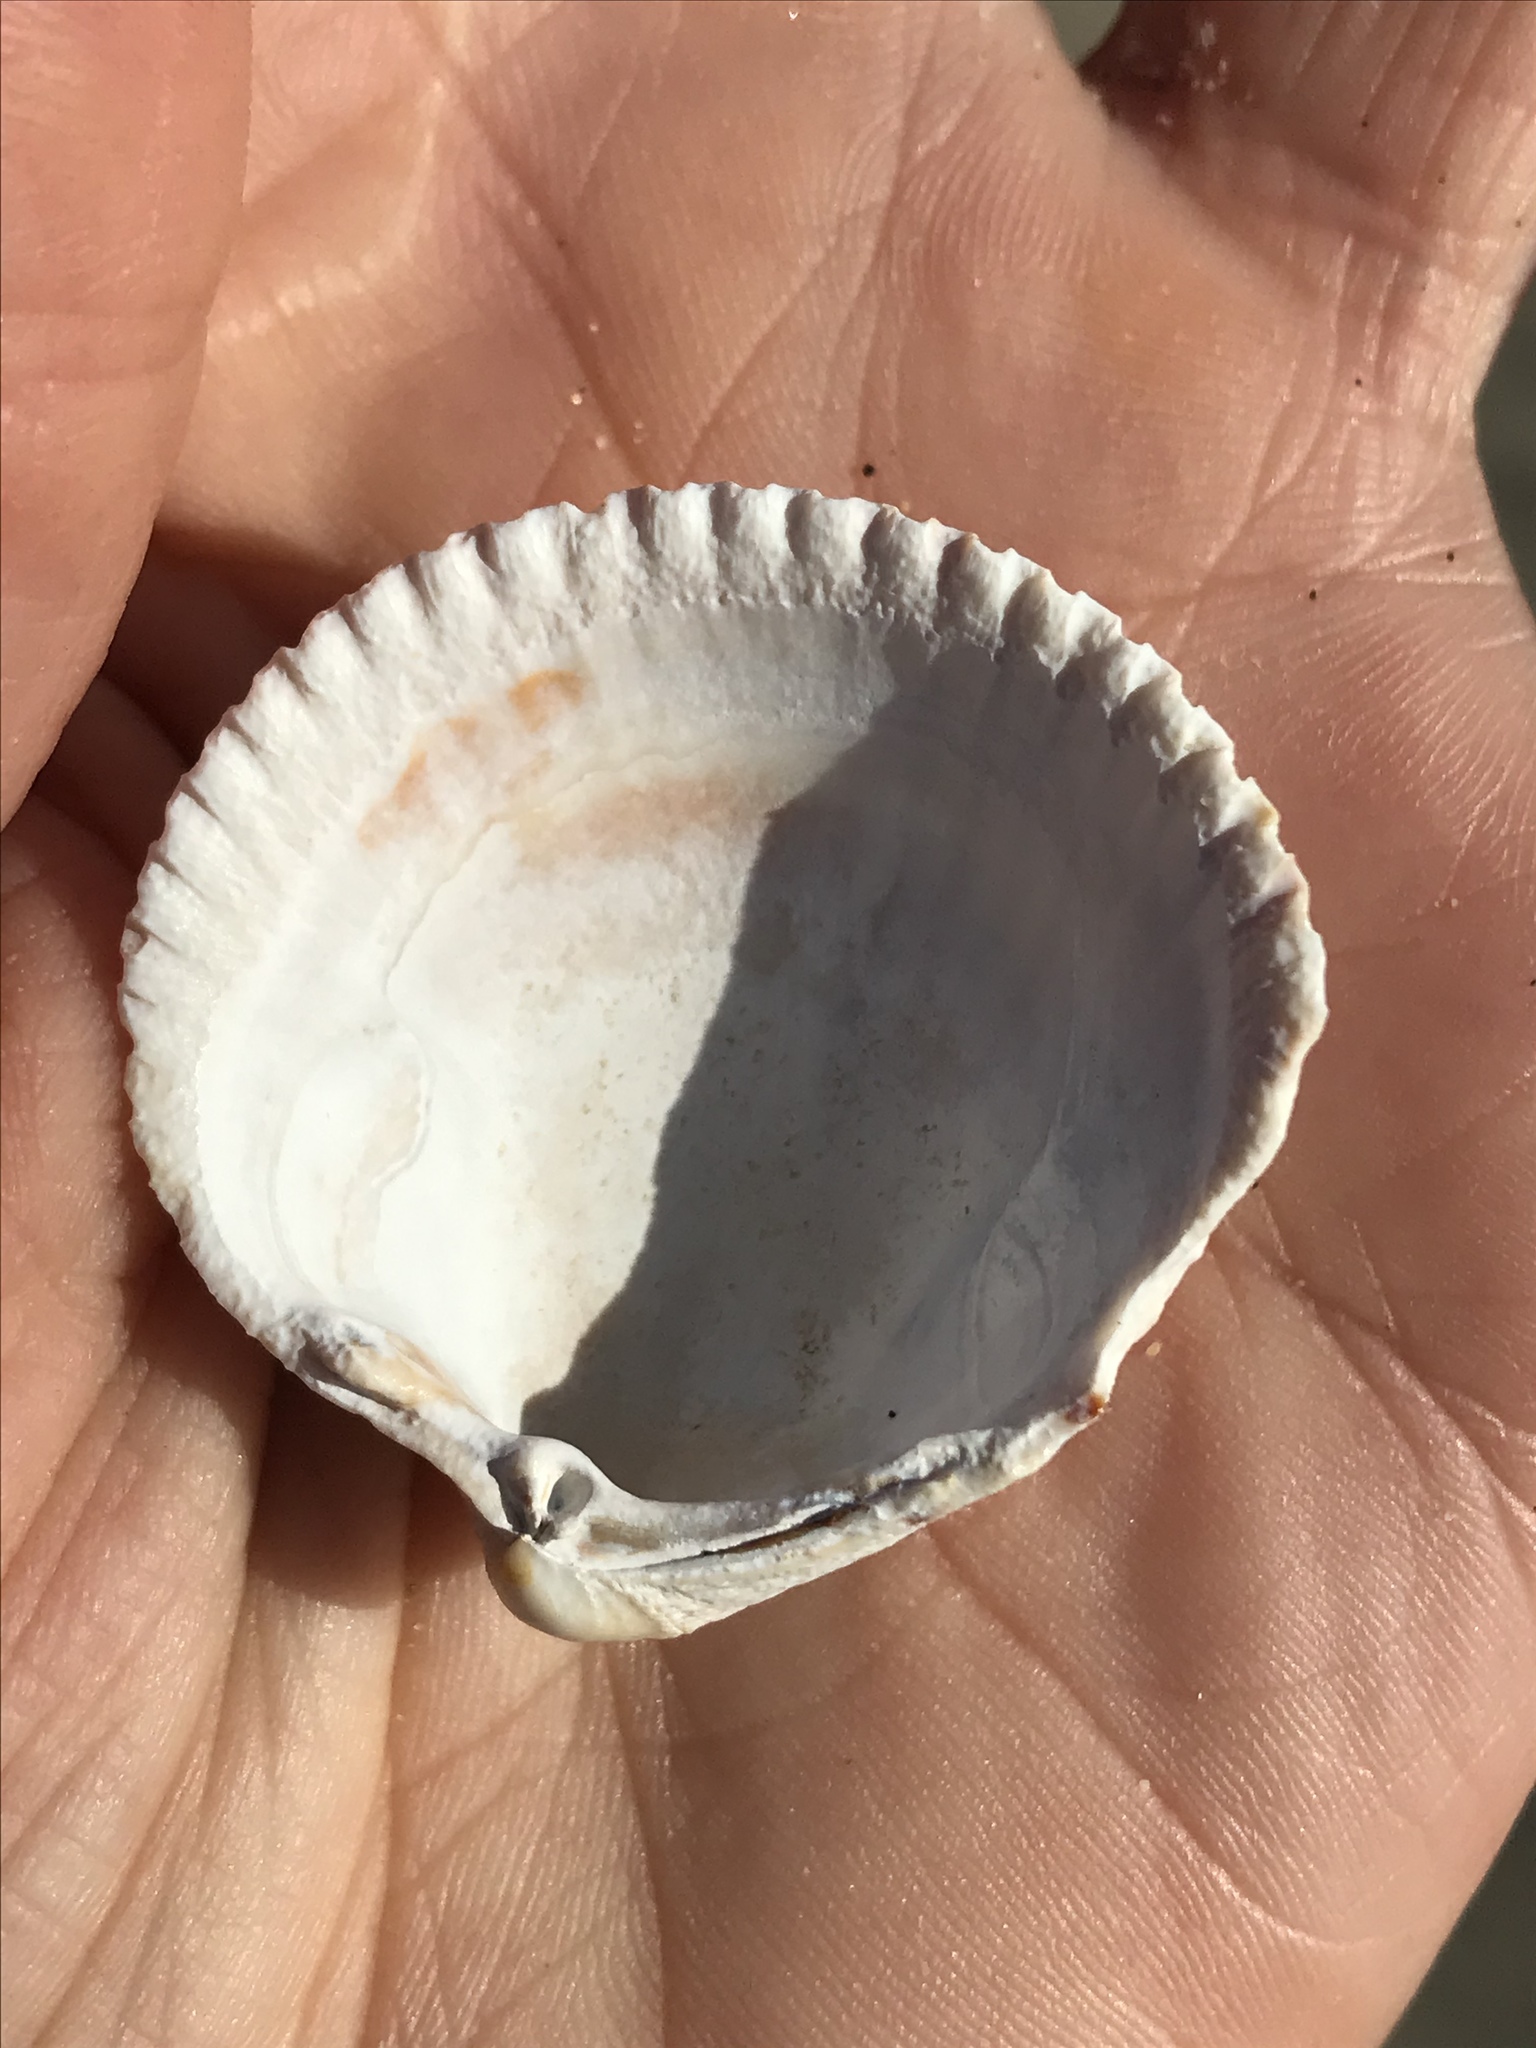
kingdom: Animalia
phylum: Mollusca
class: Bivalvia
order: Cardiida
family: Cardiidae
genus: Clinocardium
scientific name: Clinocardium nuttallii
